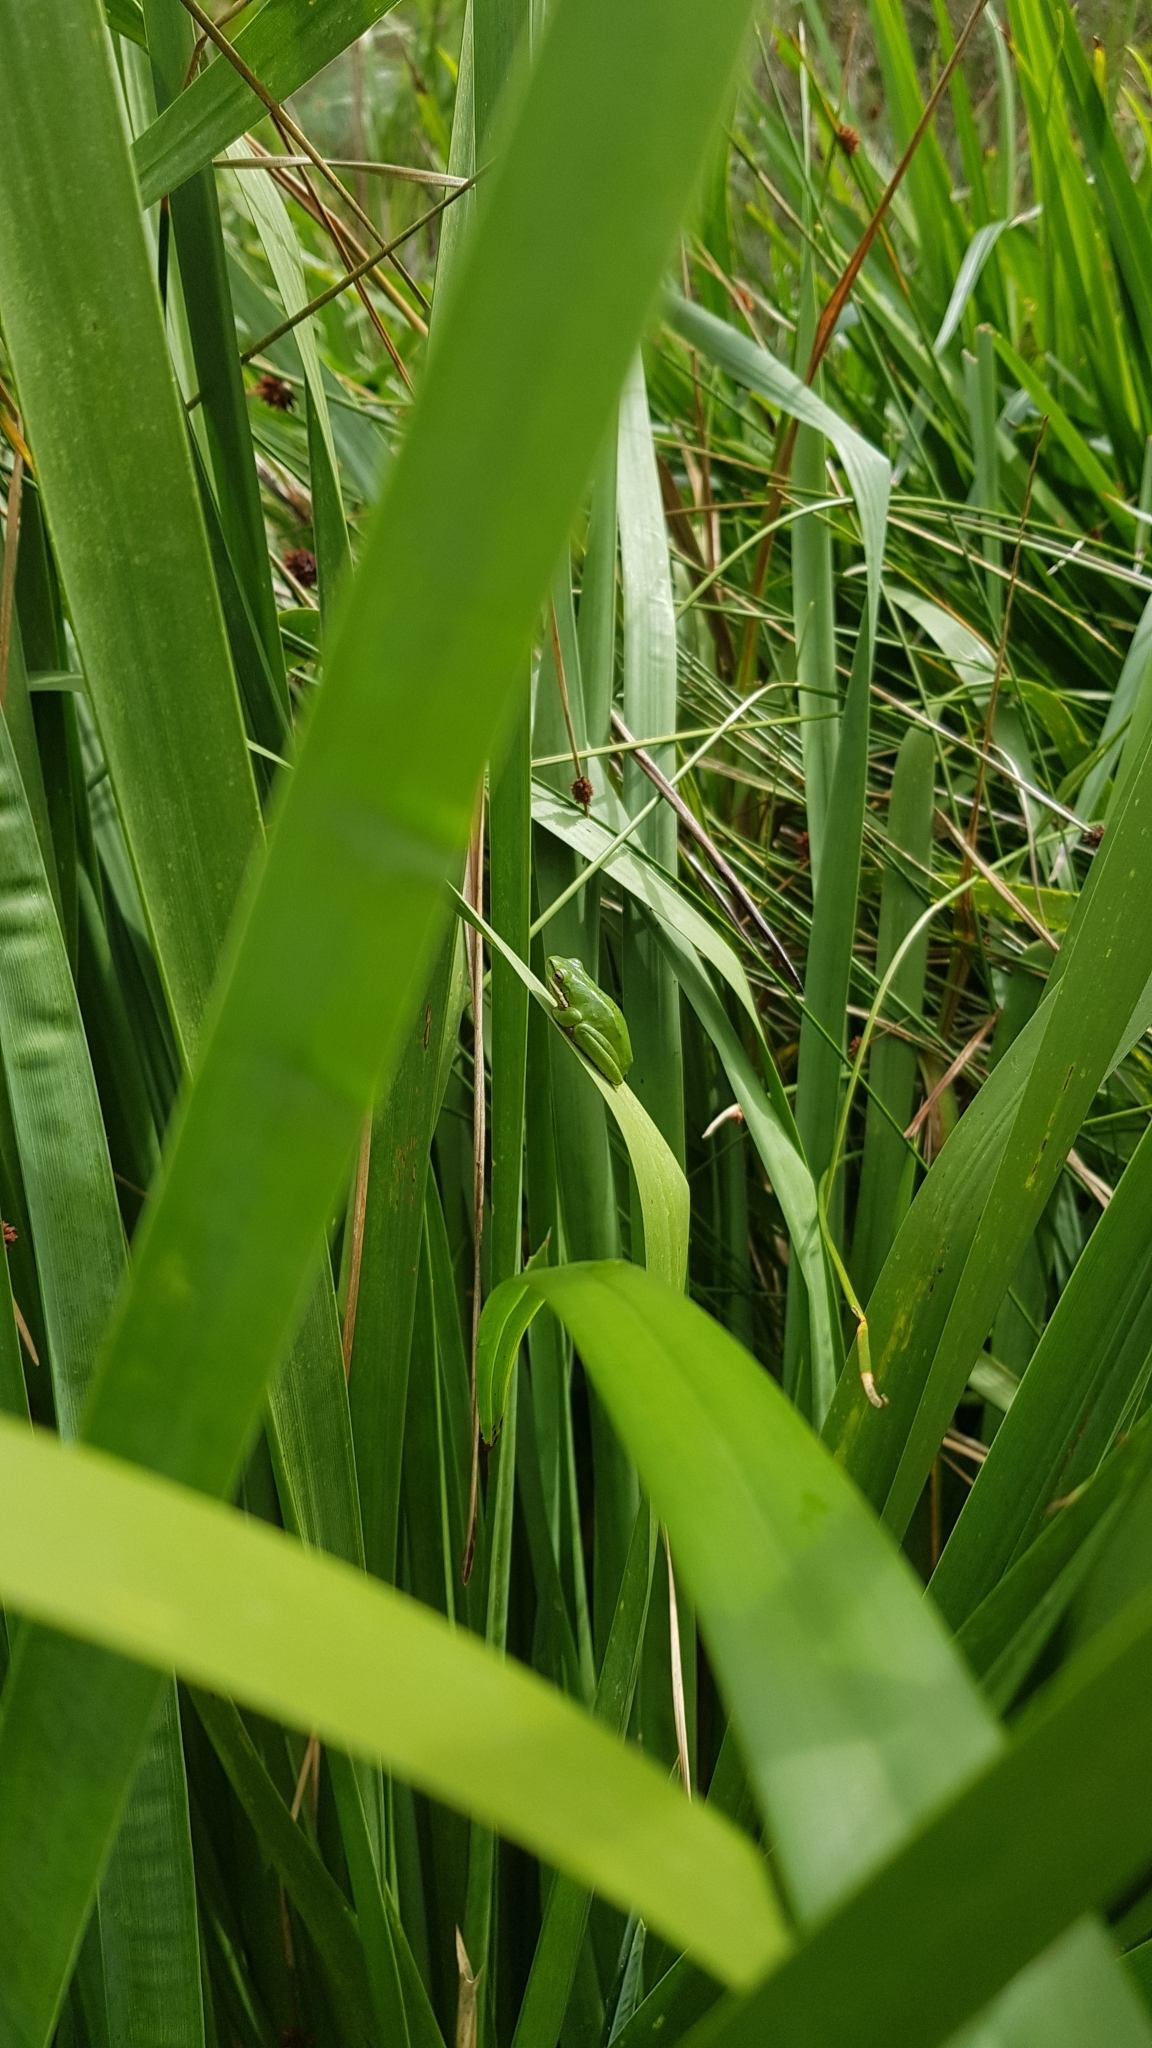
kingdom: Animalia
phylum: Chordata
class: Amphibia
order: Anura
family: Pelodryadidae
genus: Litoria
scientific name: Litoria fallax
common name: Eastern dwarf treefrog
